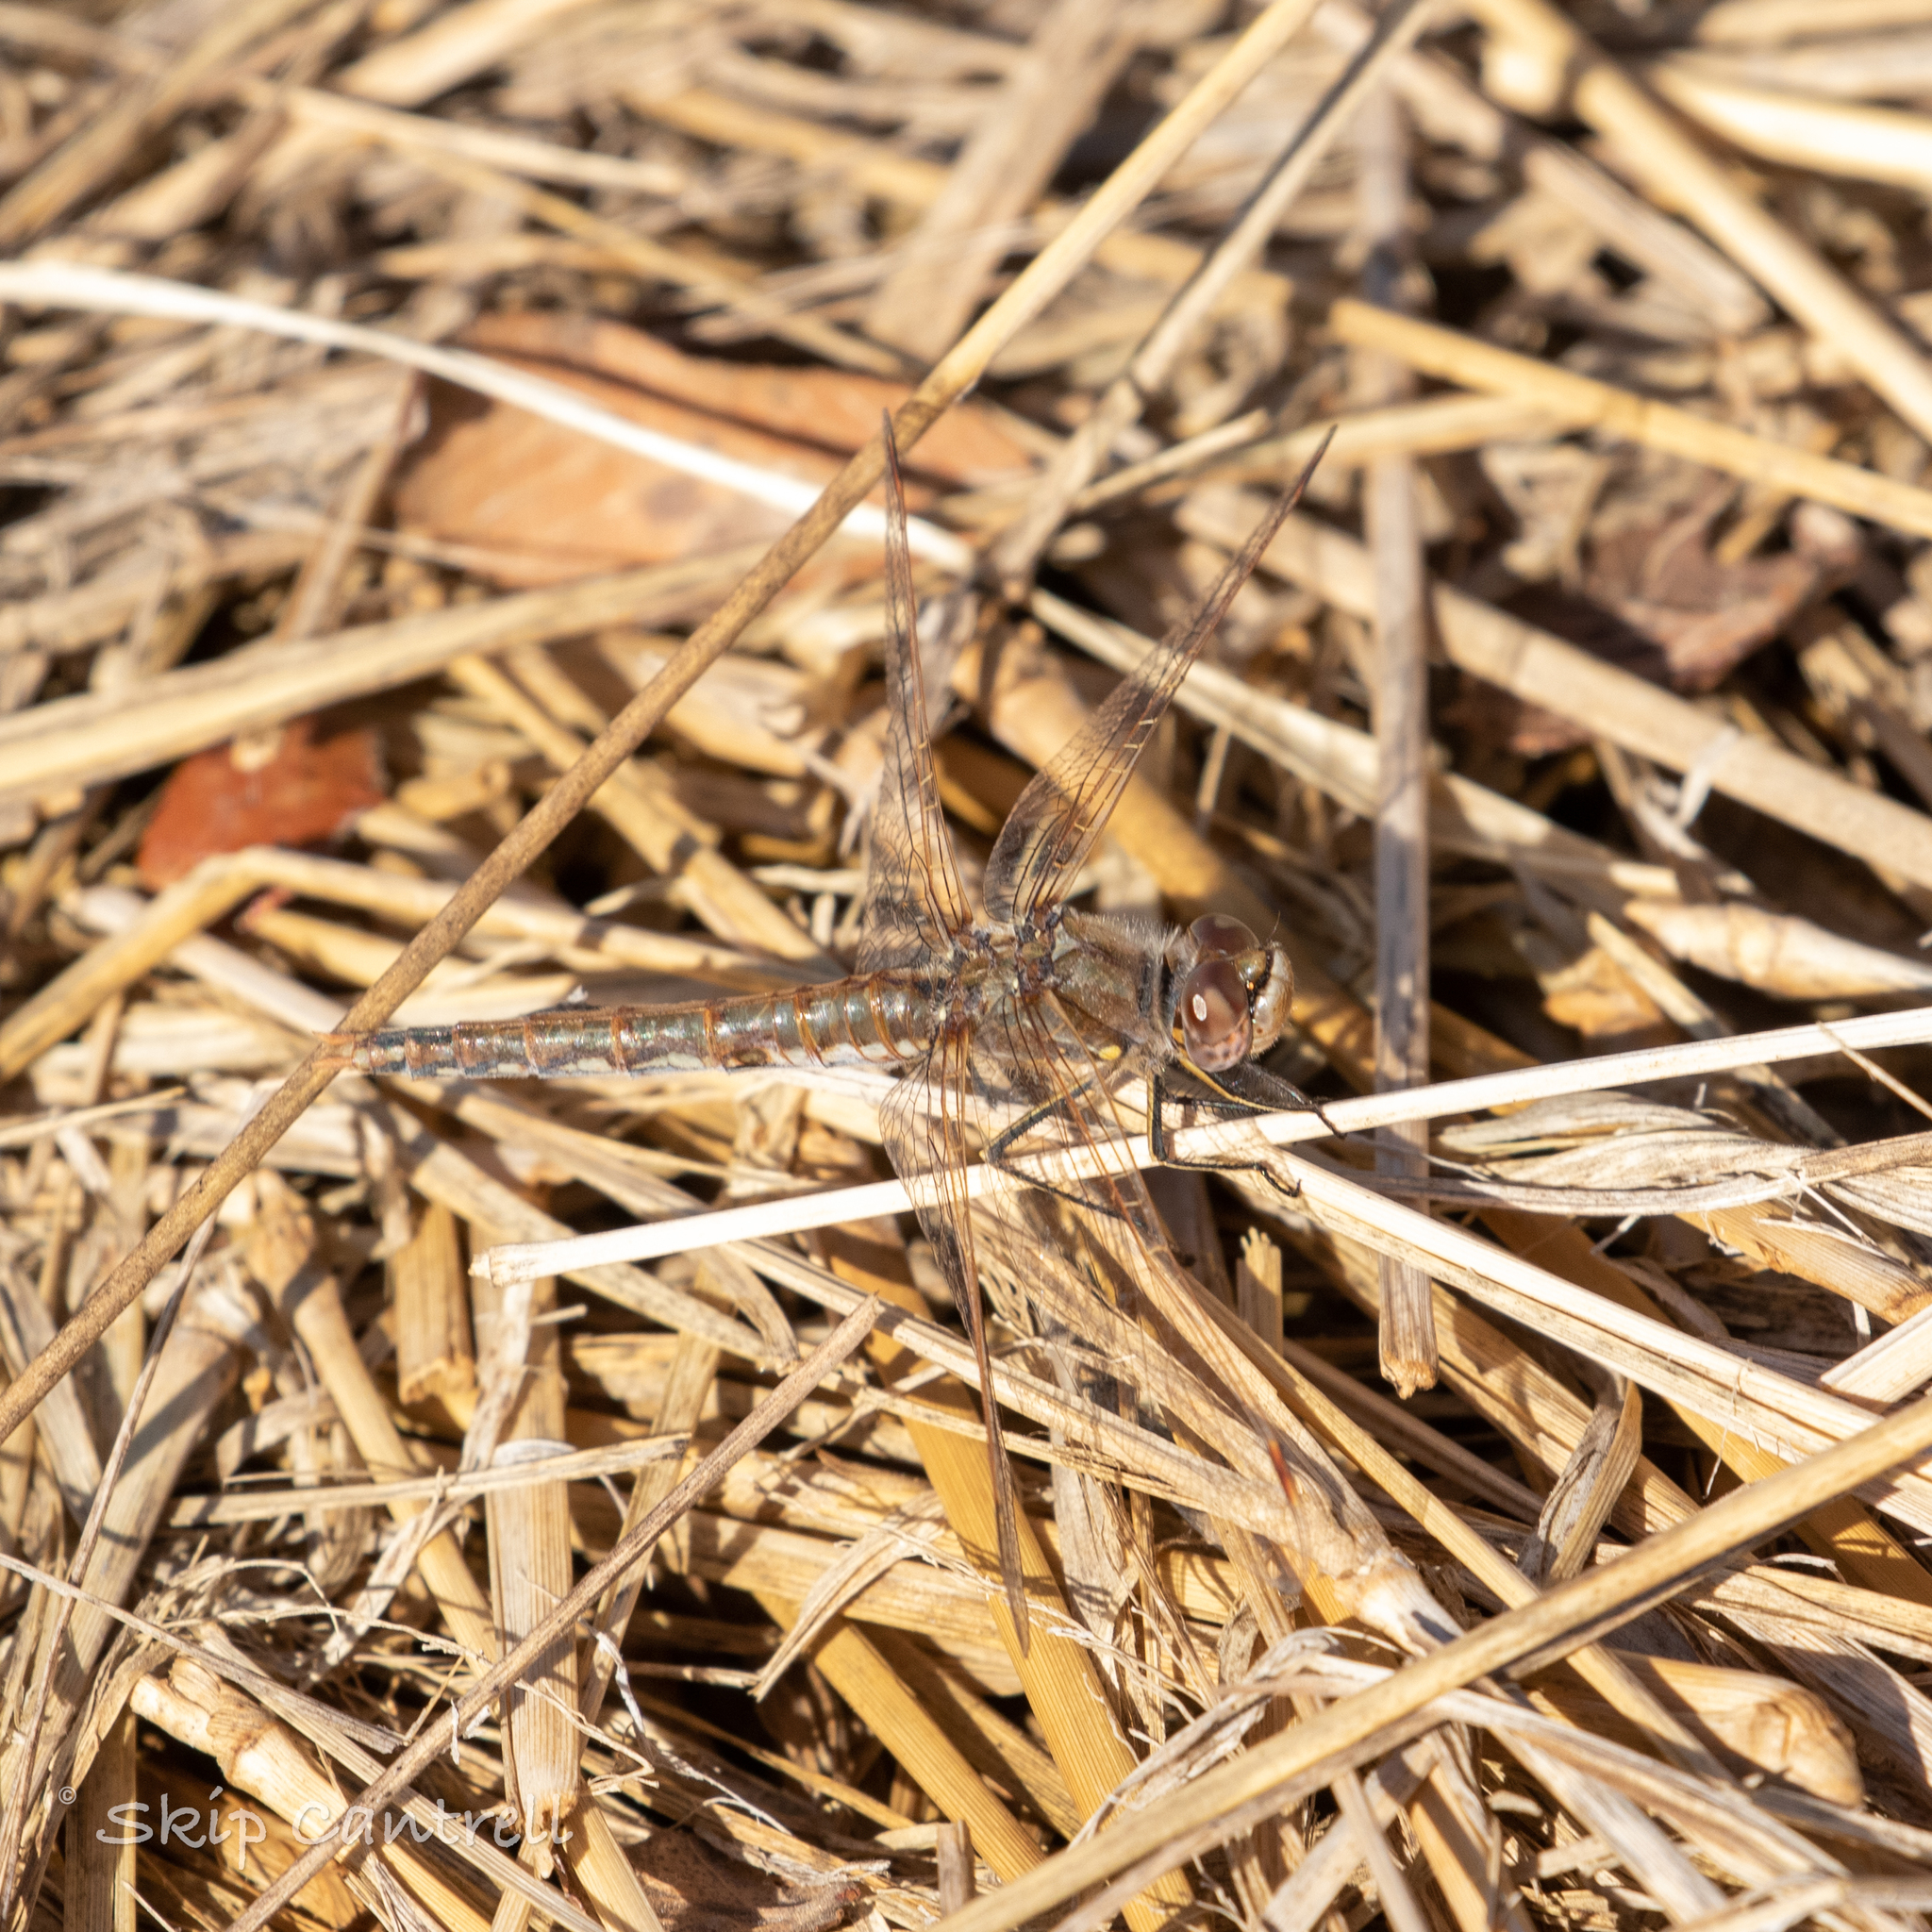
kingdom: Animalia
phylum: Arthropoda
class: Insecta
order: Odonata
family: Libellulidae
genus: Sympetrum
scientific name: Sympetrum corruptum
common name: Variegated meadowhawk
